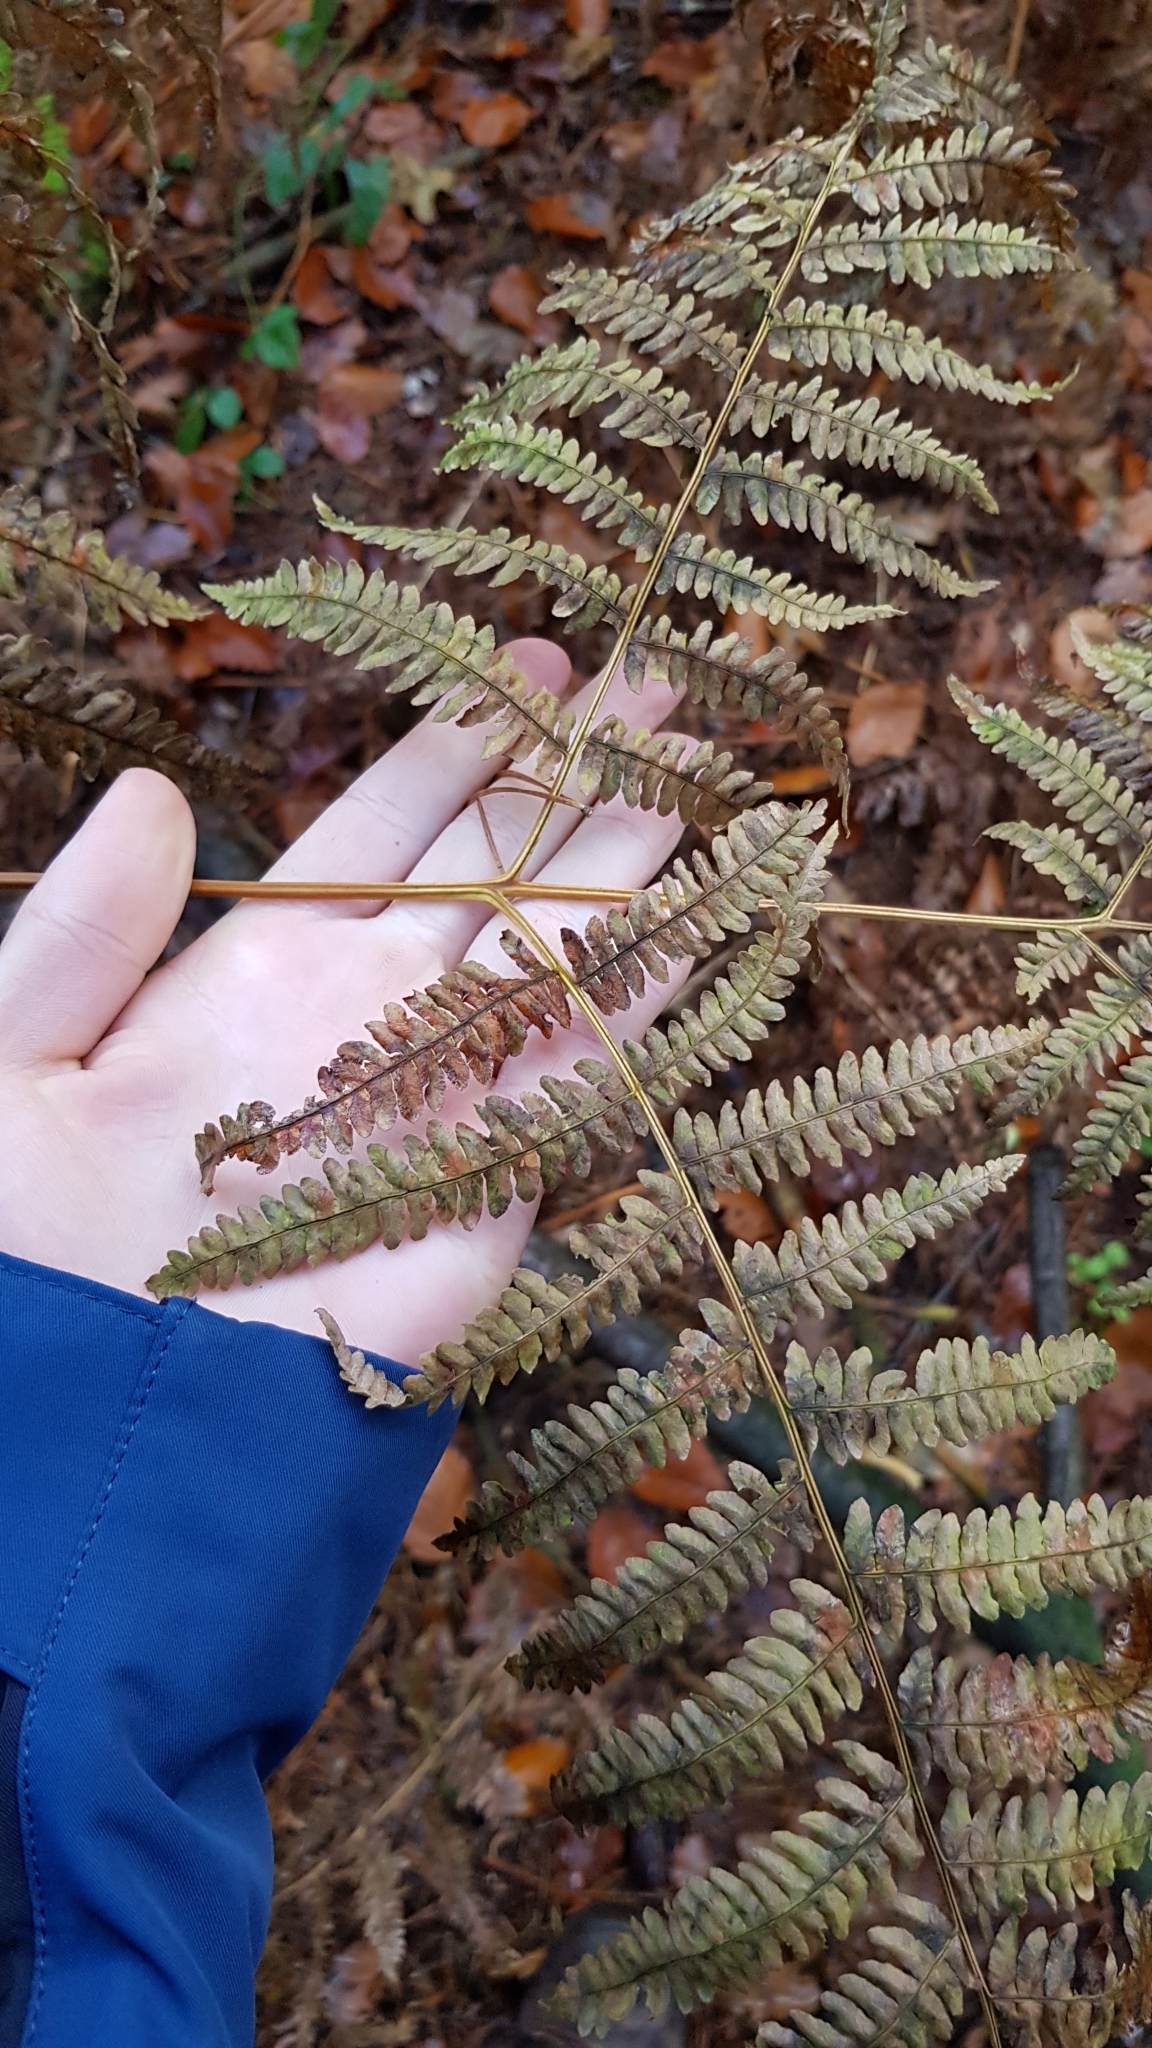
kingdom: Plantae
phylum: Tracheophyta
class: Polypodiopsida
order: Polypodiales
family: Dennstaedtiaceae
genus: Pteridium
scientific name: Pteridium aquilinum
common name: Bracken
